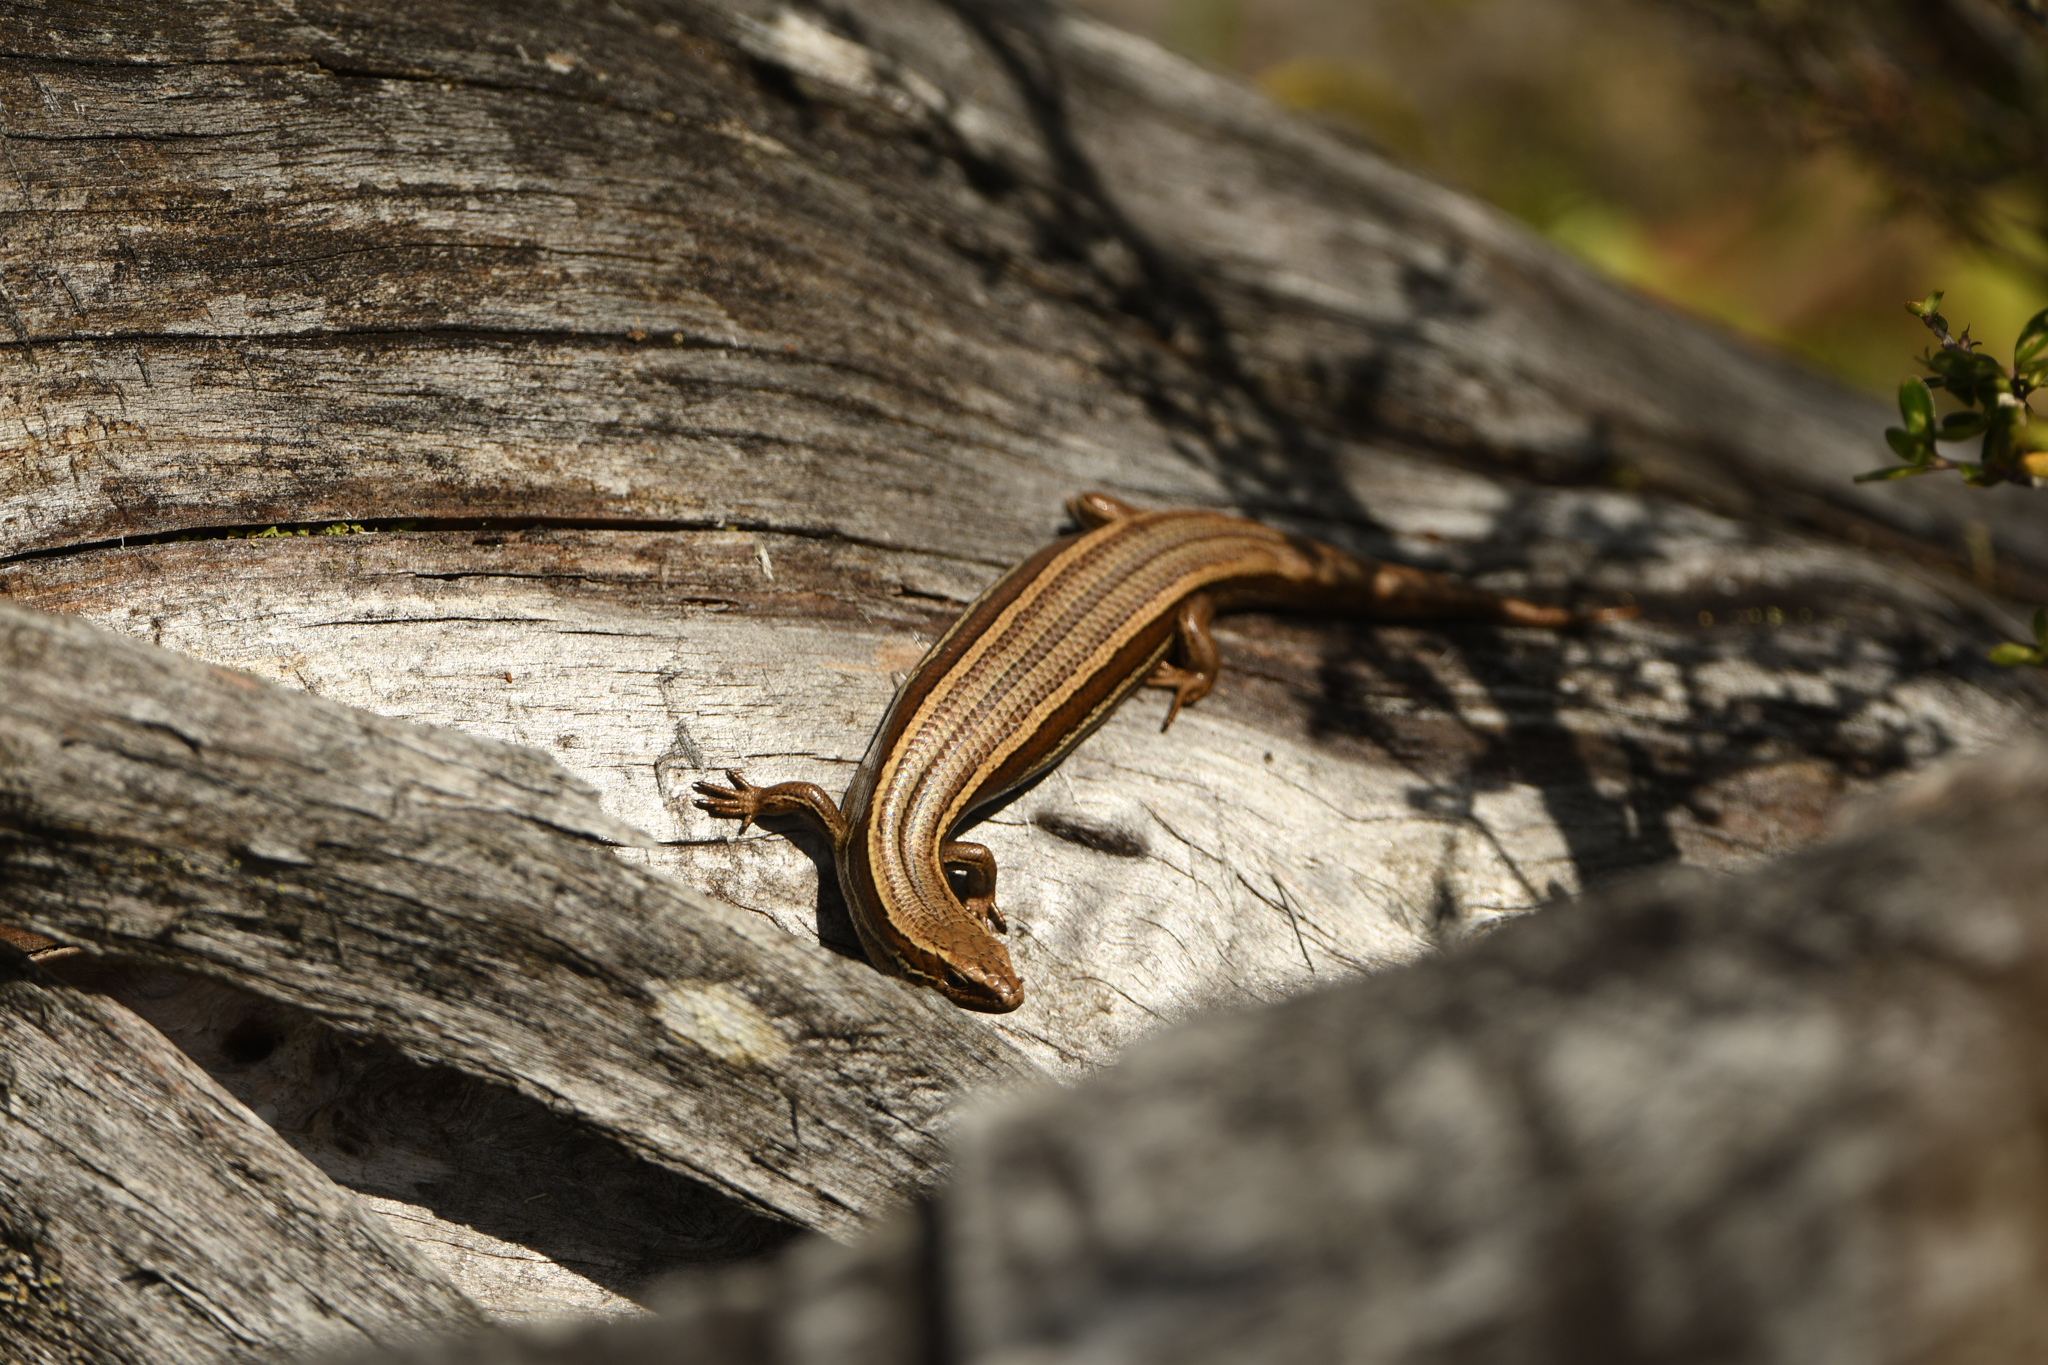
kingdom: Animalia
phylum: Chordata
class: Squamata
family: Scincidae
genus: Oligosoma
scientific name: Oligosoma polychroma
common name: Common new zealand skink
